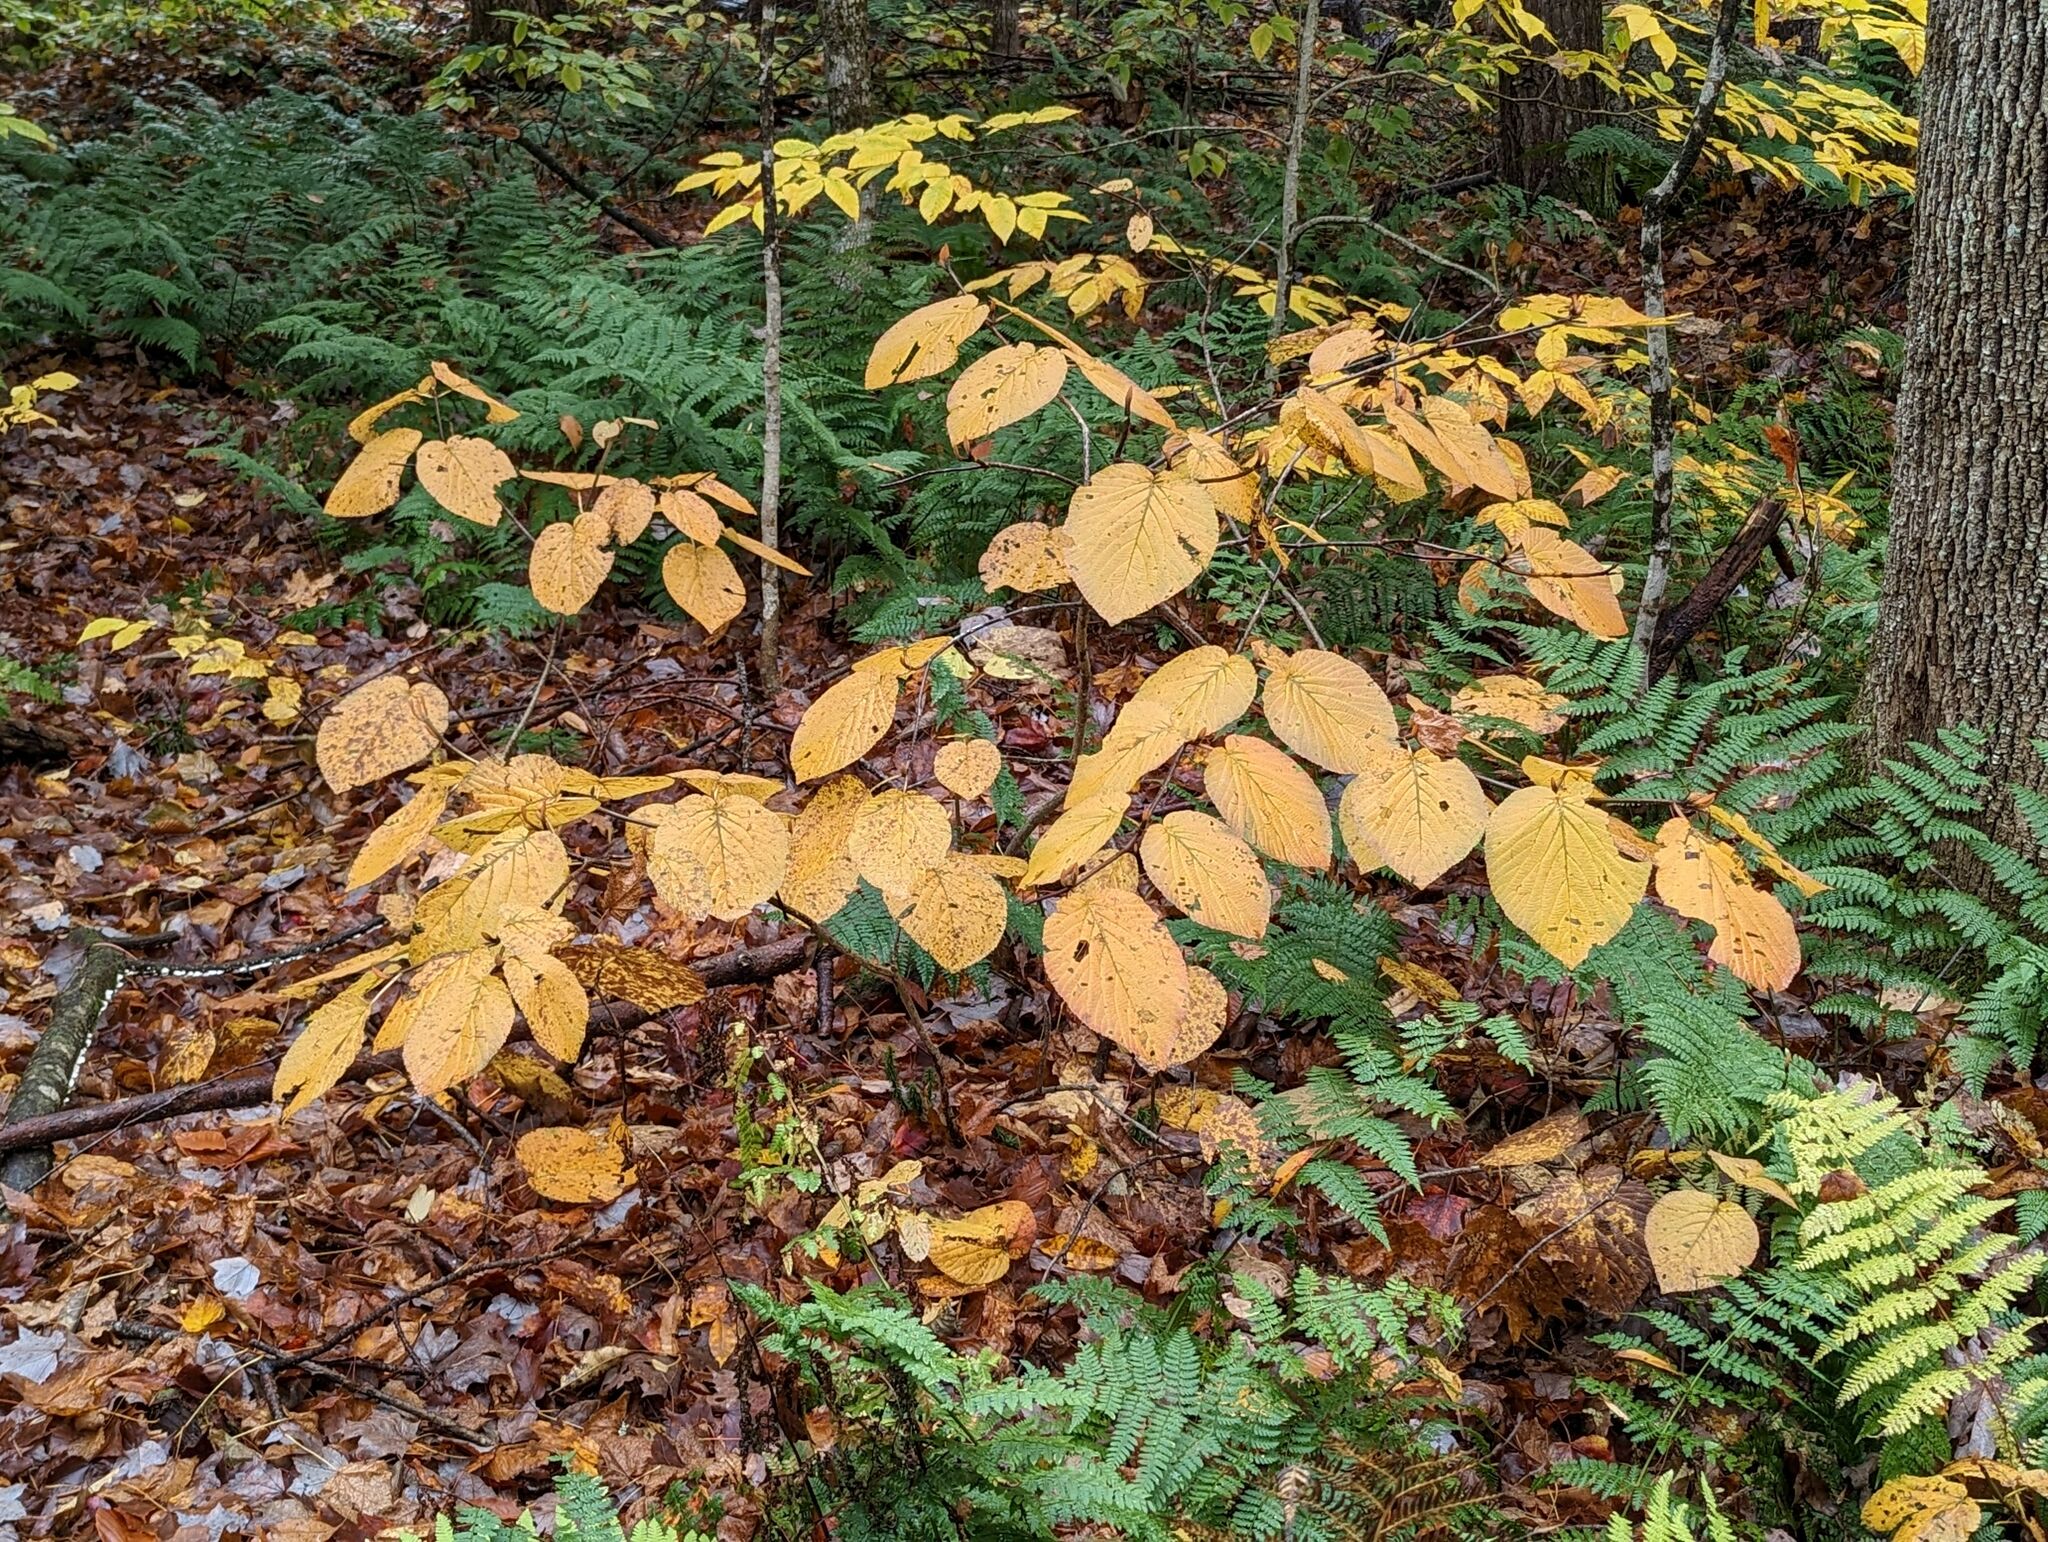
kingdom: Plantae
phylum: Tracheophyta
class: Magnoliopsida
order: Dipsacales
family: Viburnaceae
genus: Viburnum
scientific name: Viburnum lantanoides
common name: Hobblebush
